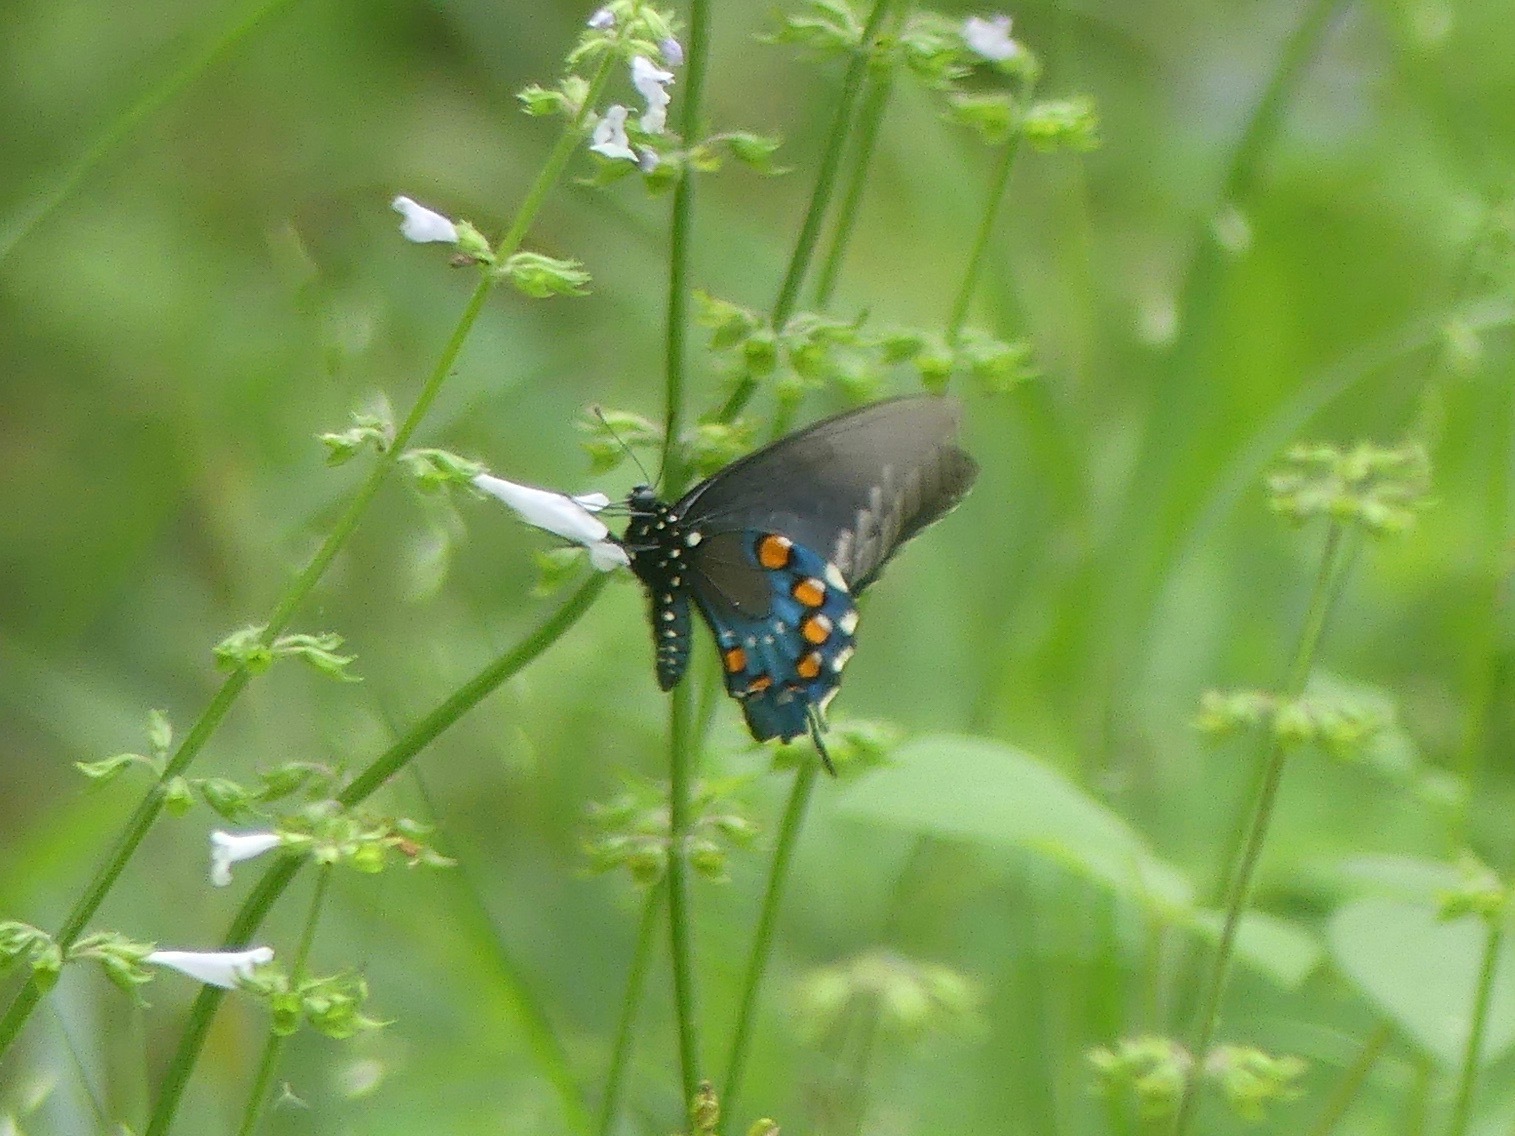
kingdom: Animalia
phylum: Arthropoda
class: Insecta
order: Lepidoptera
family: Papilionidae
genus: Battus
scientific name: Battus philenor
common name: Pipevine swallowtail
